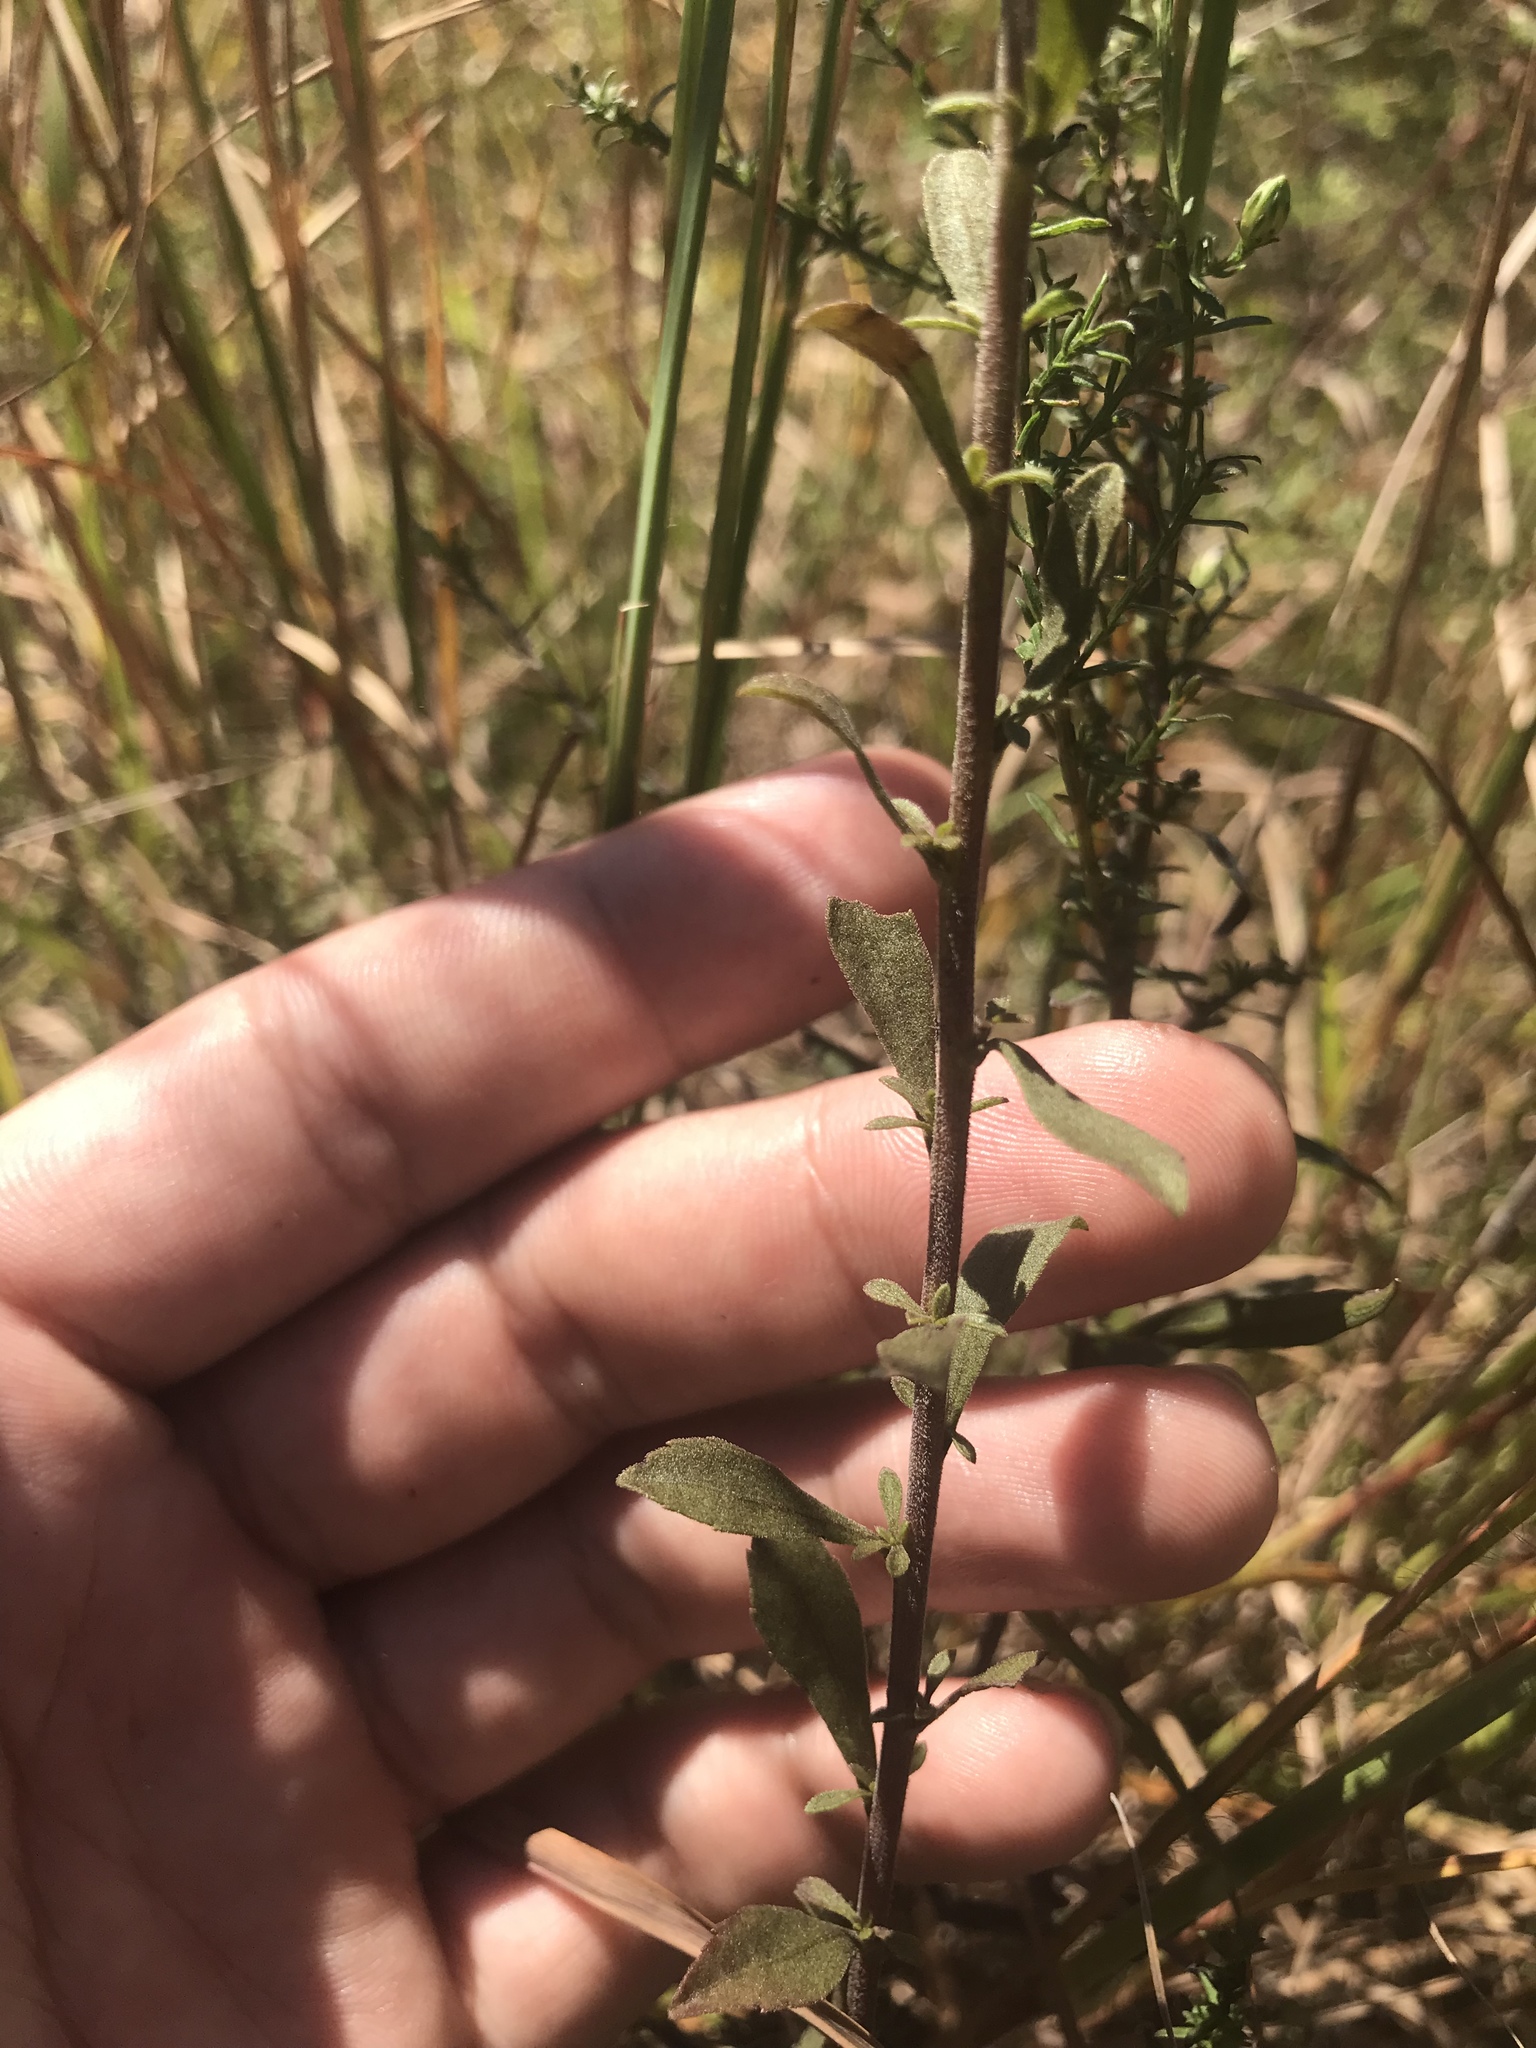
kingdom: Plantae
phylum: Tracheophyta
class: Magnoliopsida
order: Asterales
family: Asteraceae
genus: Solidago
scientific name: Solidago nemoralis
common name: Grey goldenrod
